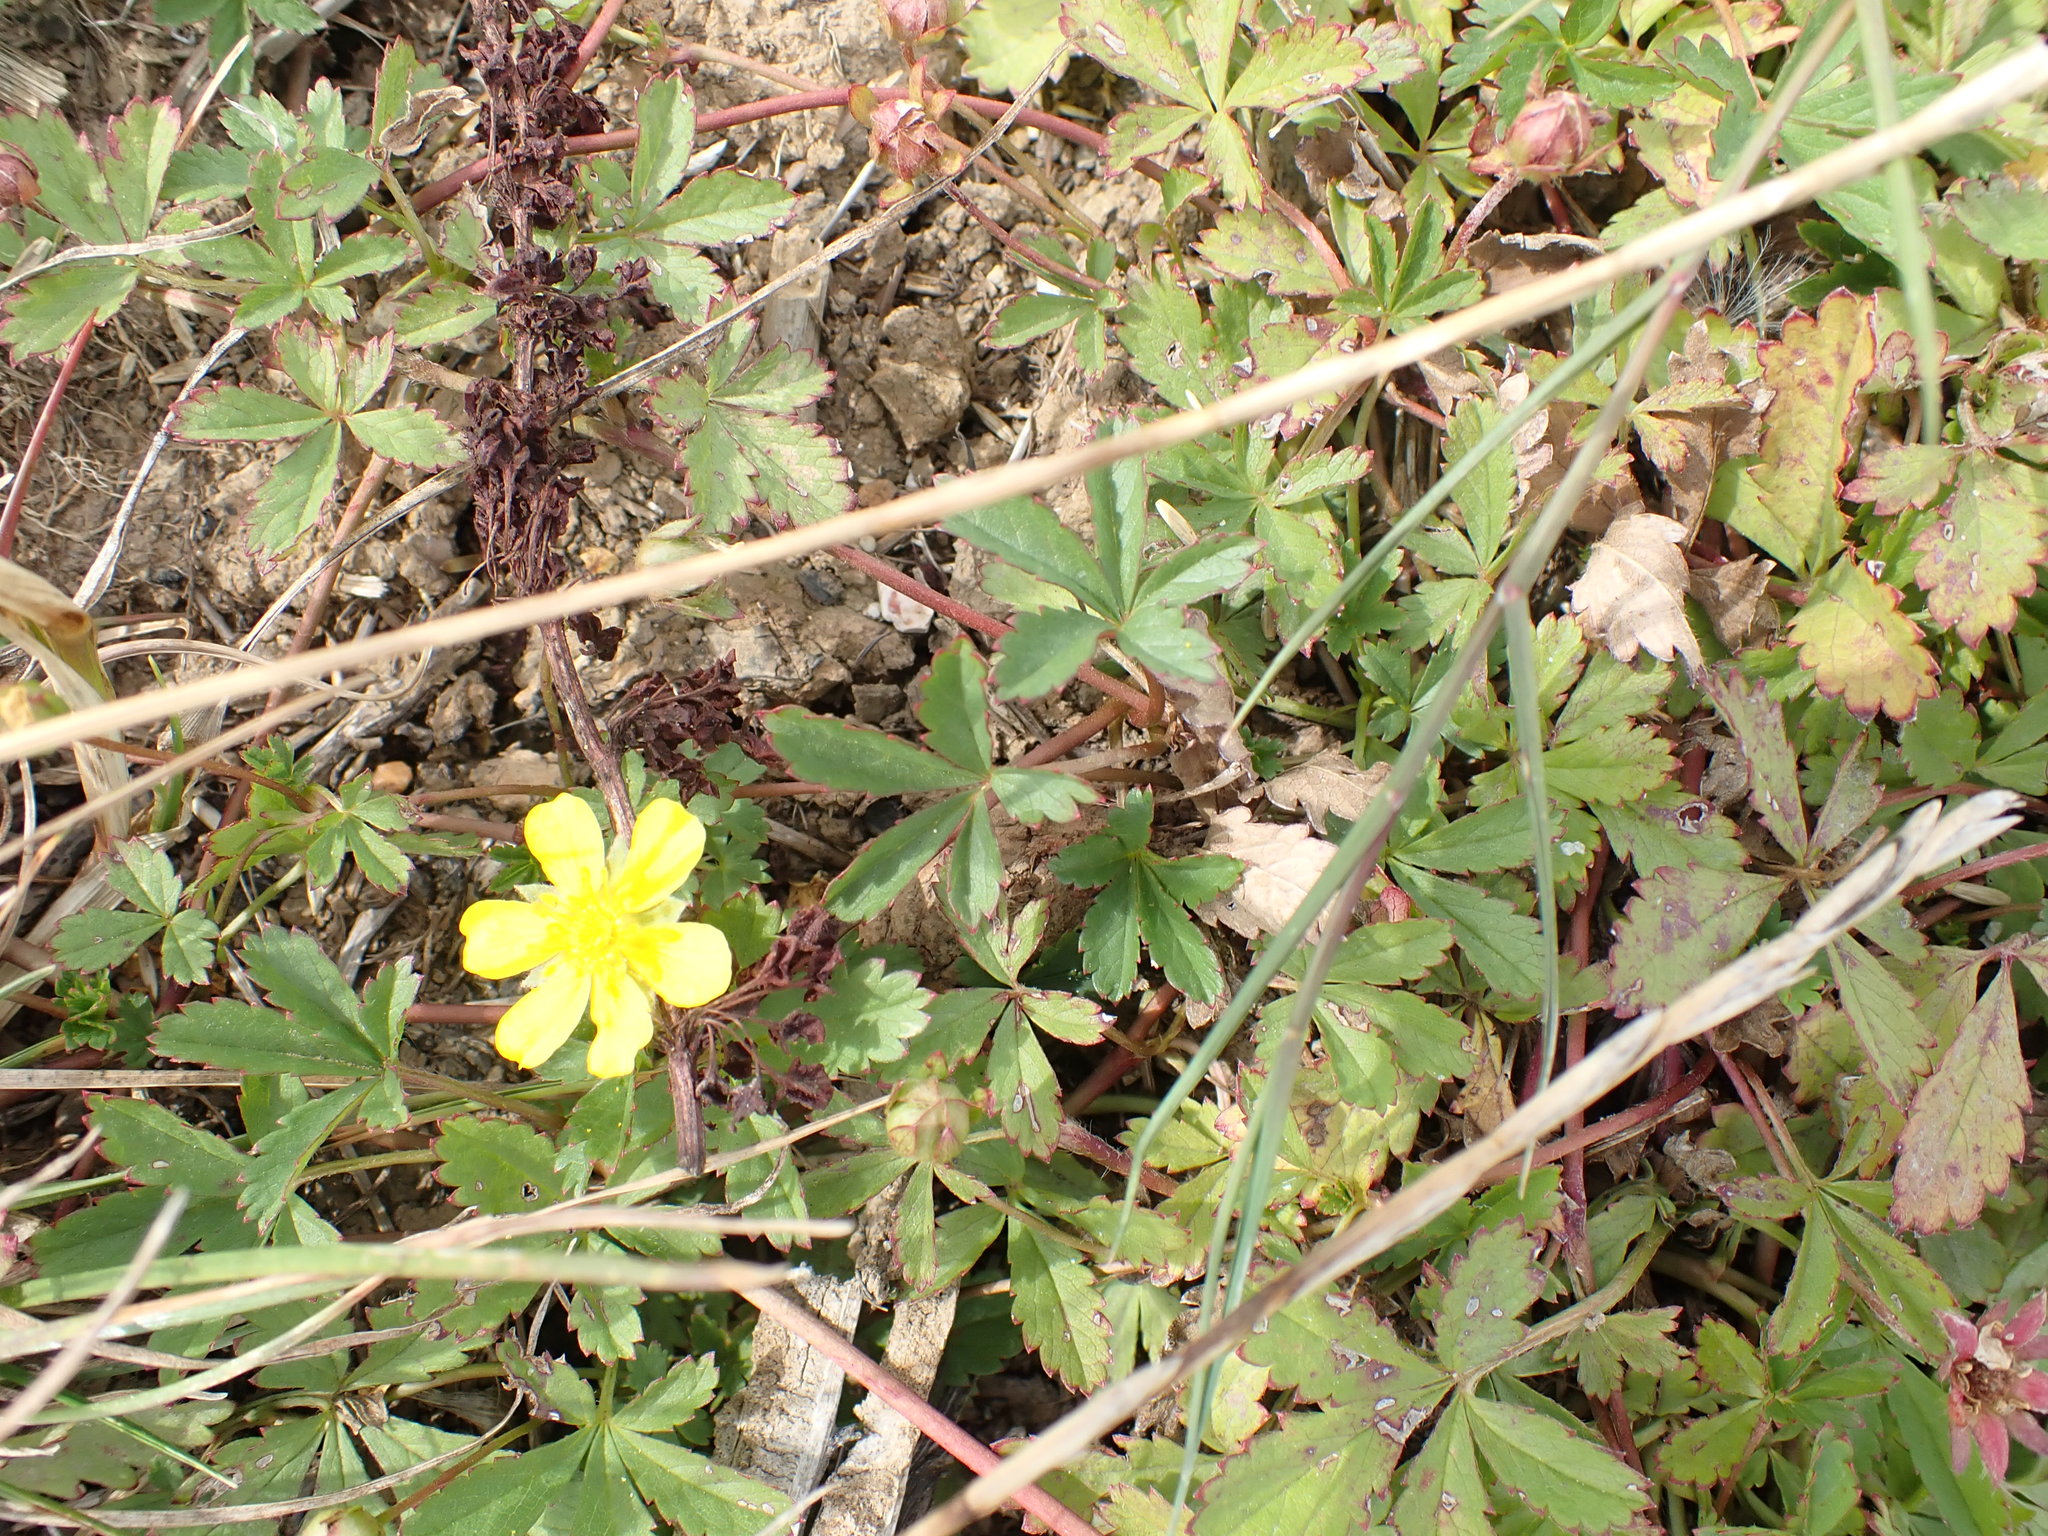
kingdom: Plantae
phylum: Tracheophyta
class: Magnoliopsida
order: Rosales
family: Rosaceae
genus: Potentilla
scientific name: Potentilla reptans
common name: Creeping cinquefoil
